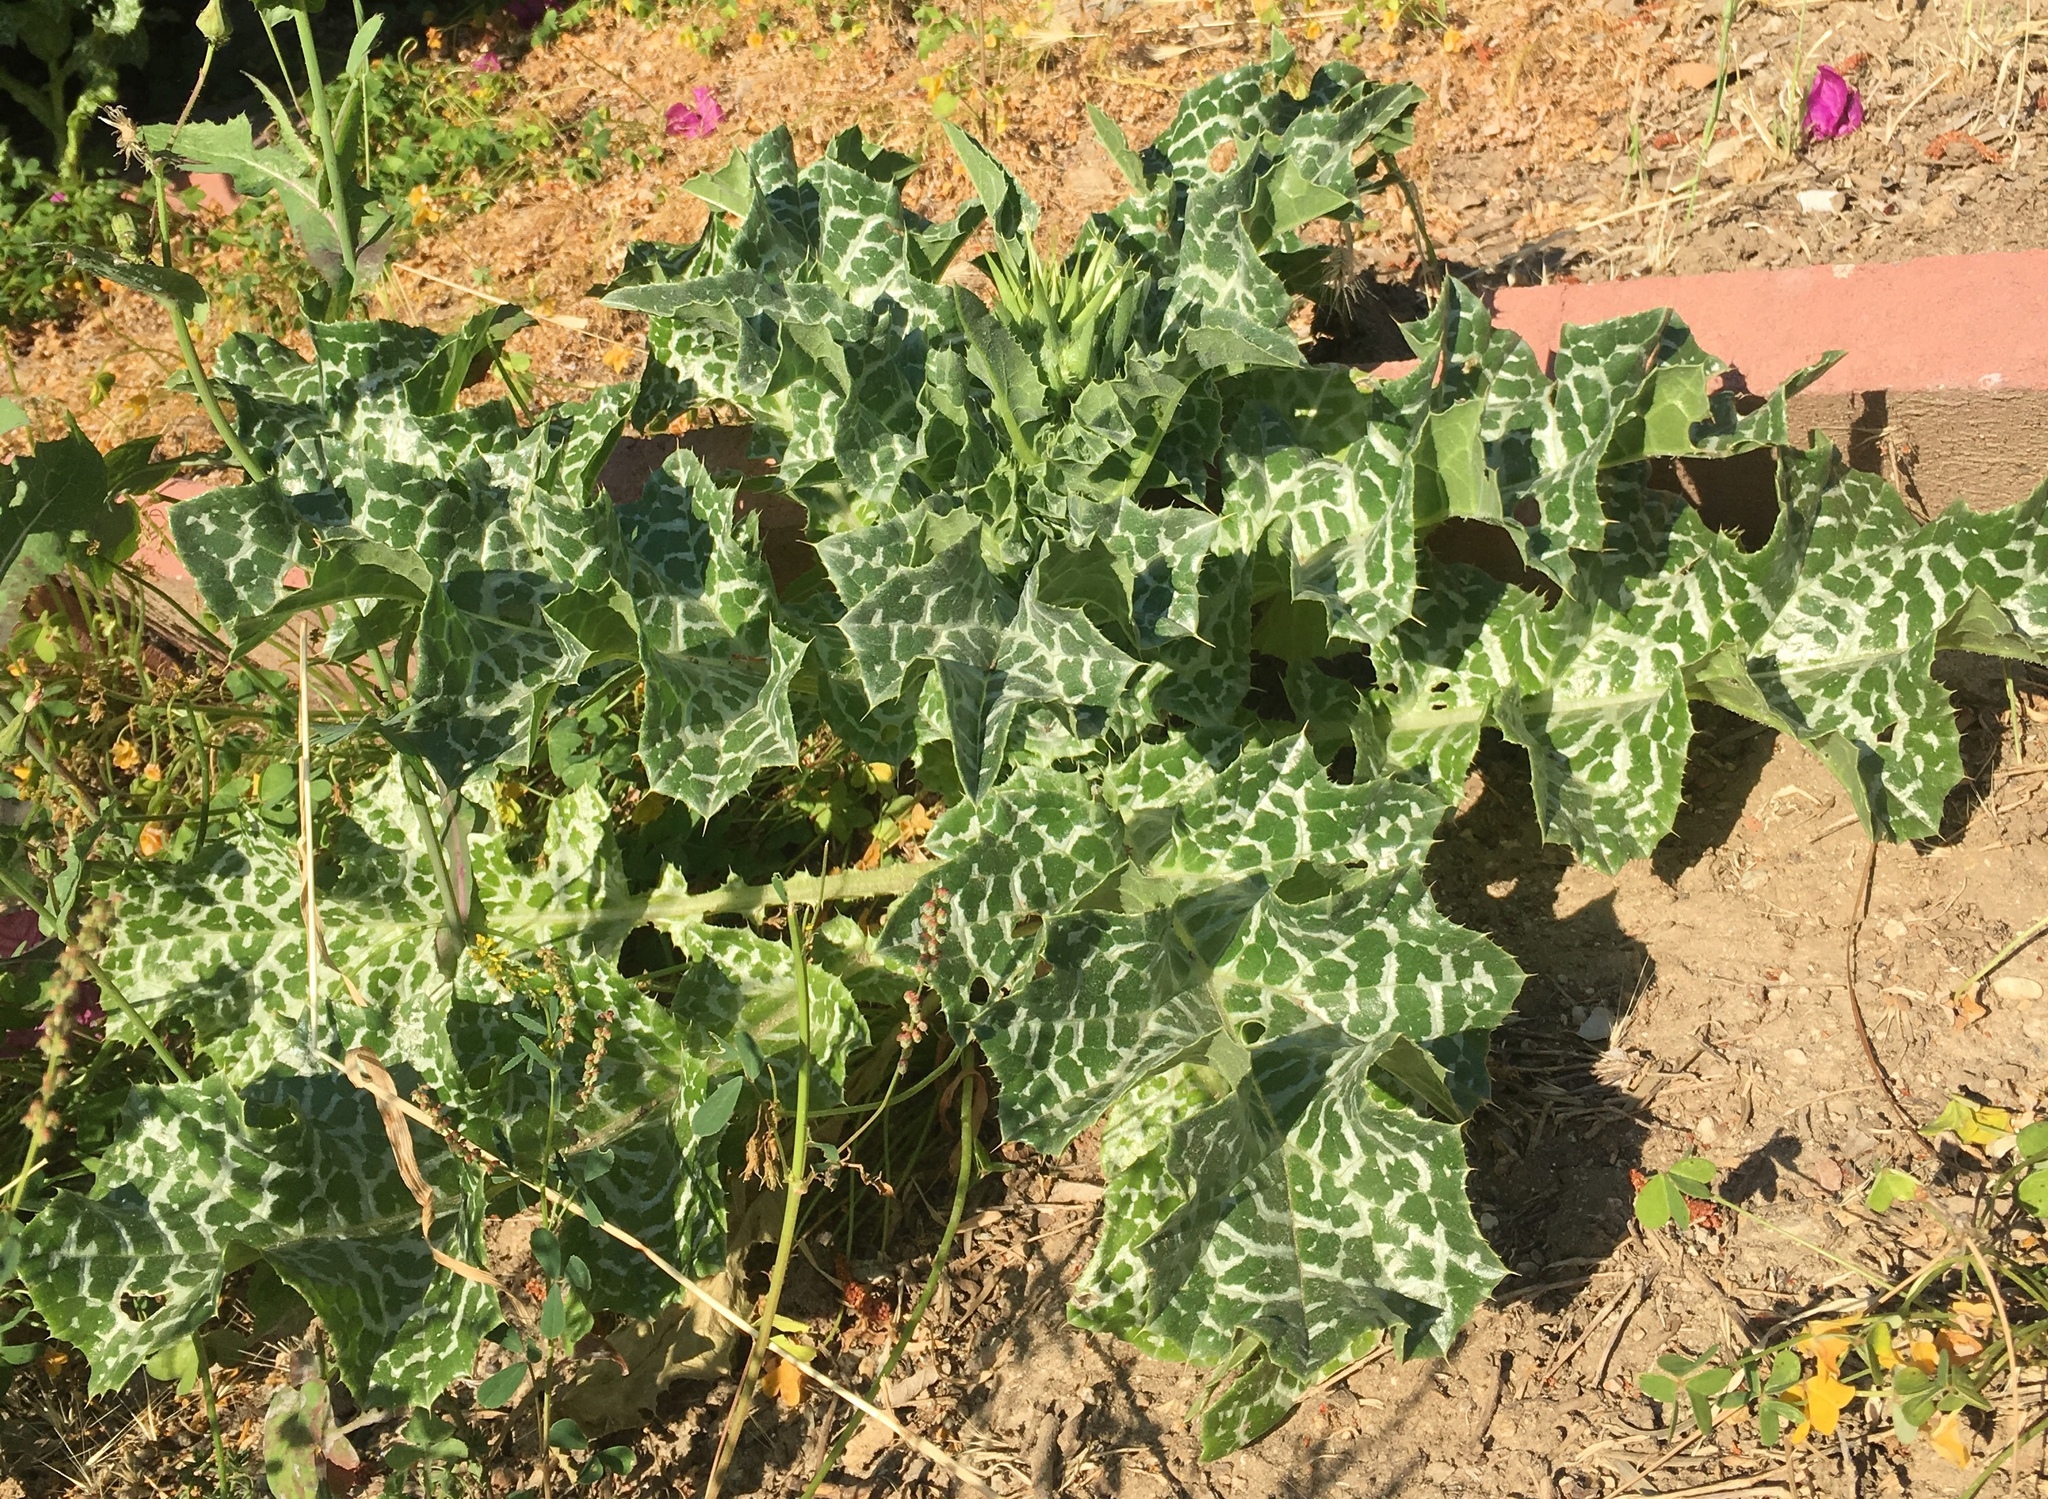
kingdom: Plantae
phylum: Tracheophyta
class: Magnoliopsida
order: Asterales
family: Asteraceae
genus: Silybum
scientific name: Silybum marianum
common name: Milk thistle
